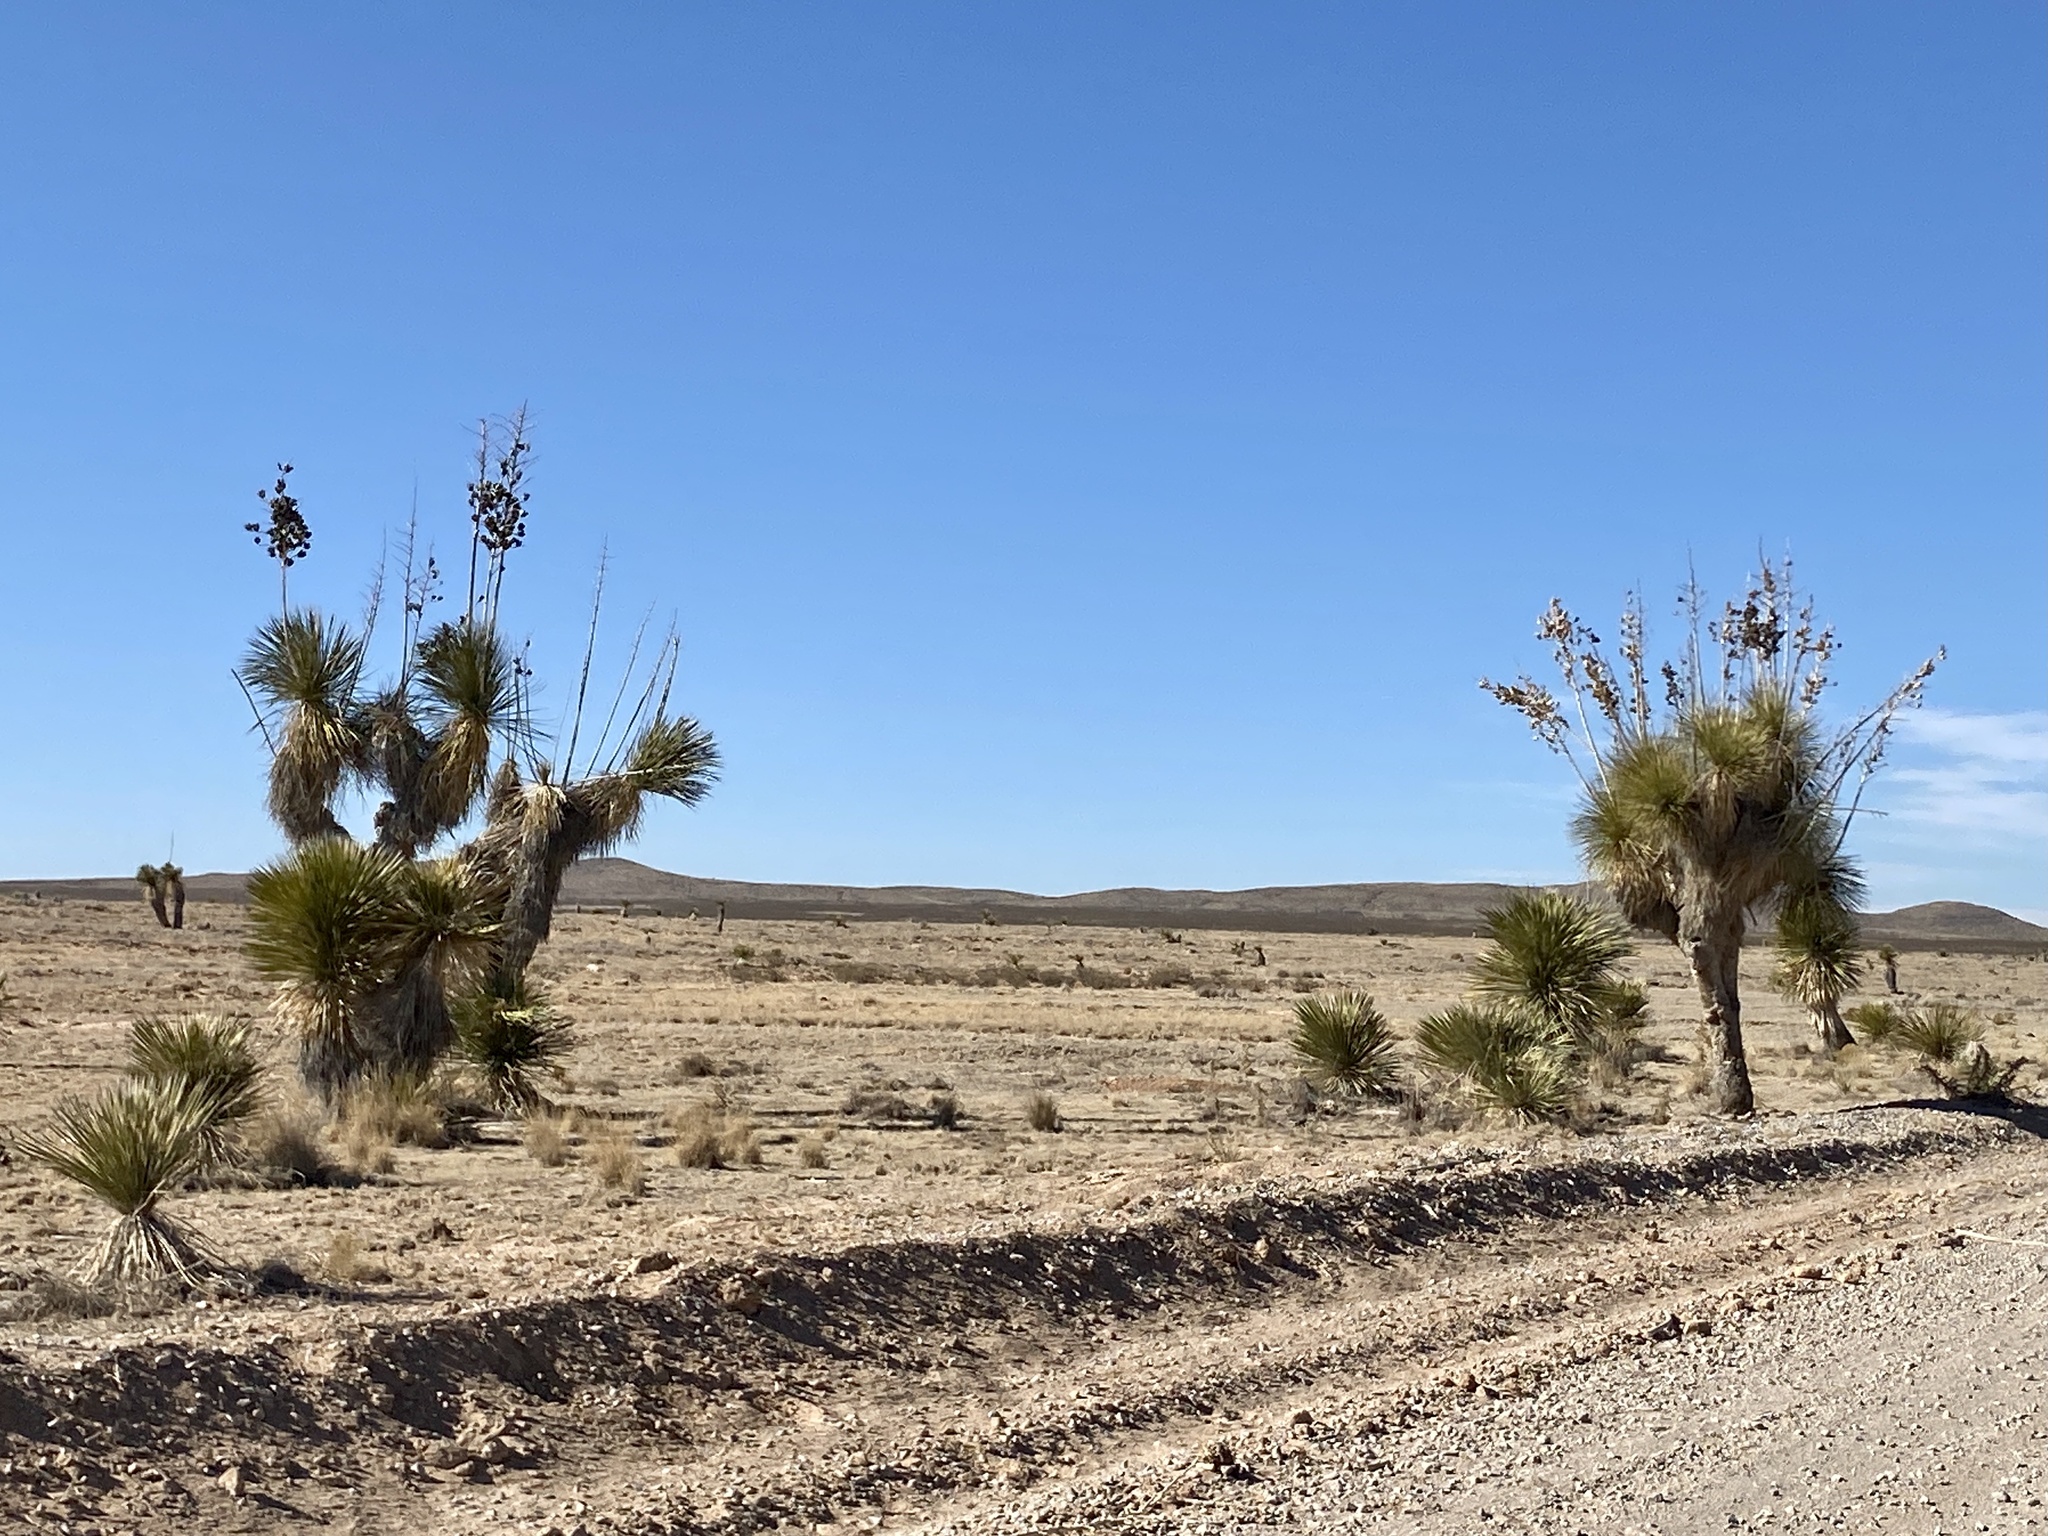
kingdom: Plantae
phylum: Tracheophyta
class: Liliopsida
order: Asparagales
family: Asparagaceae
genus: Yucca
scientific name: Yucca elata
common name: Palmella
